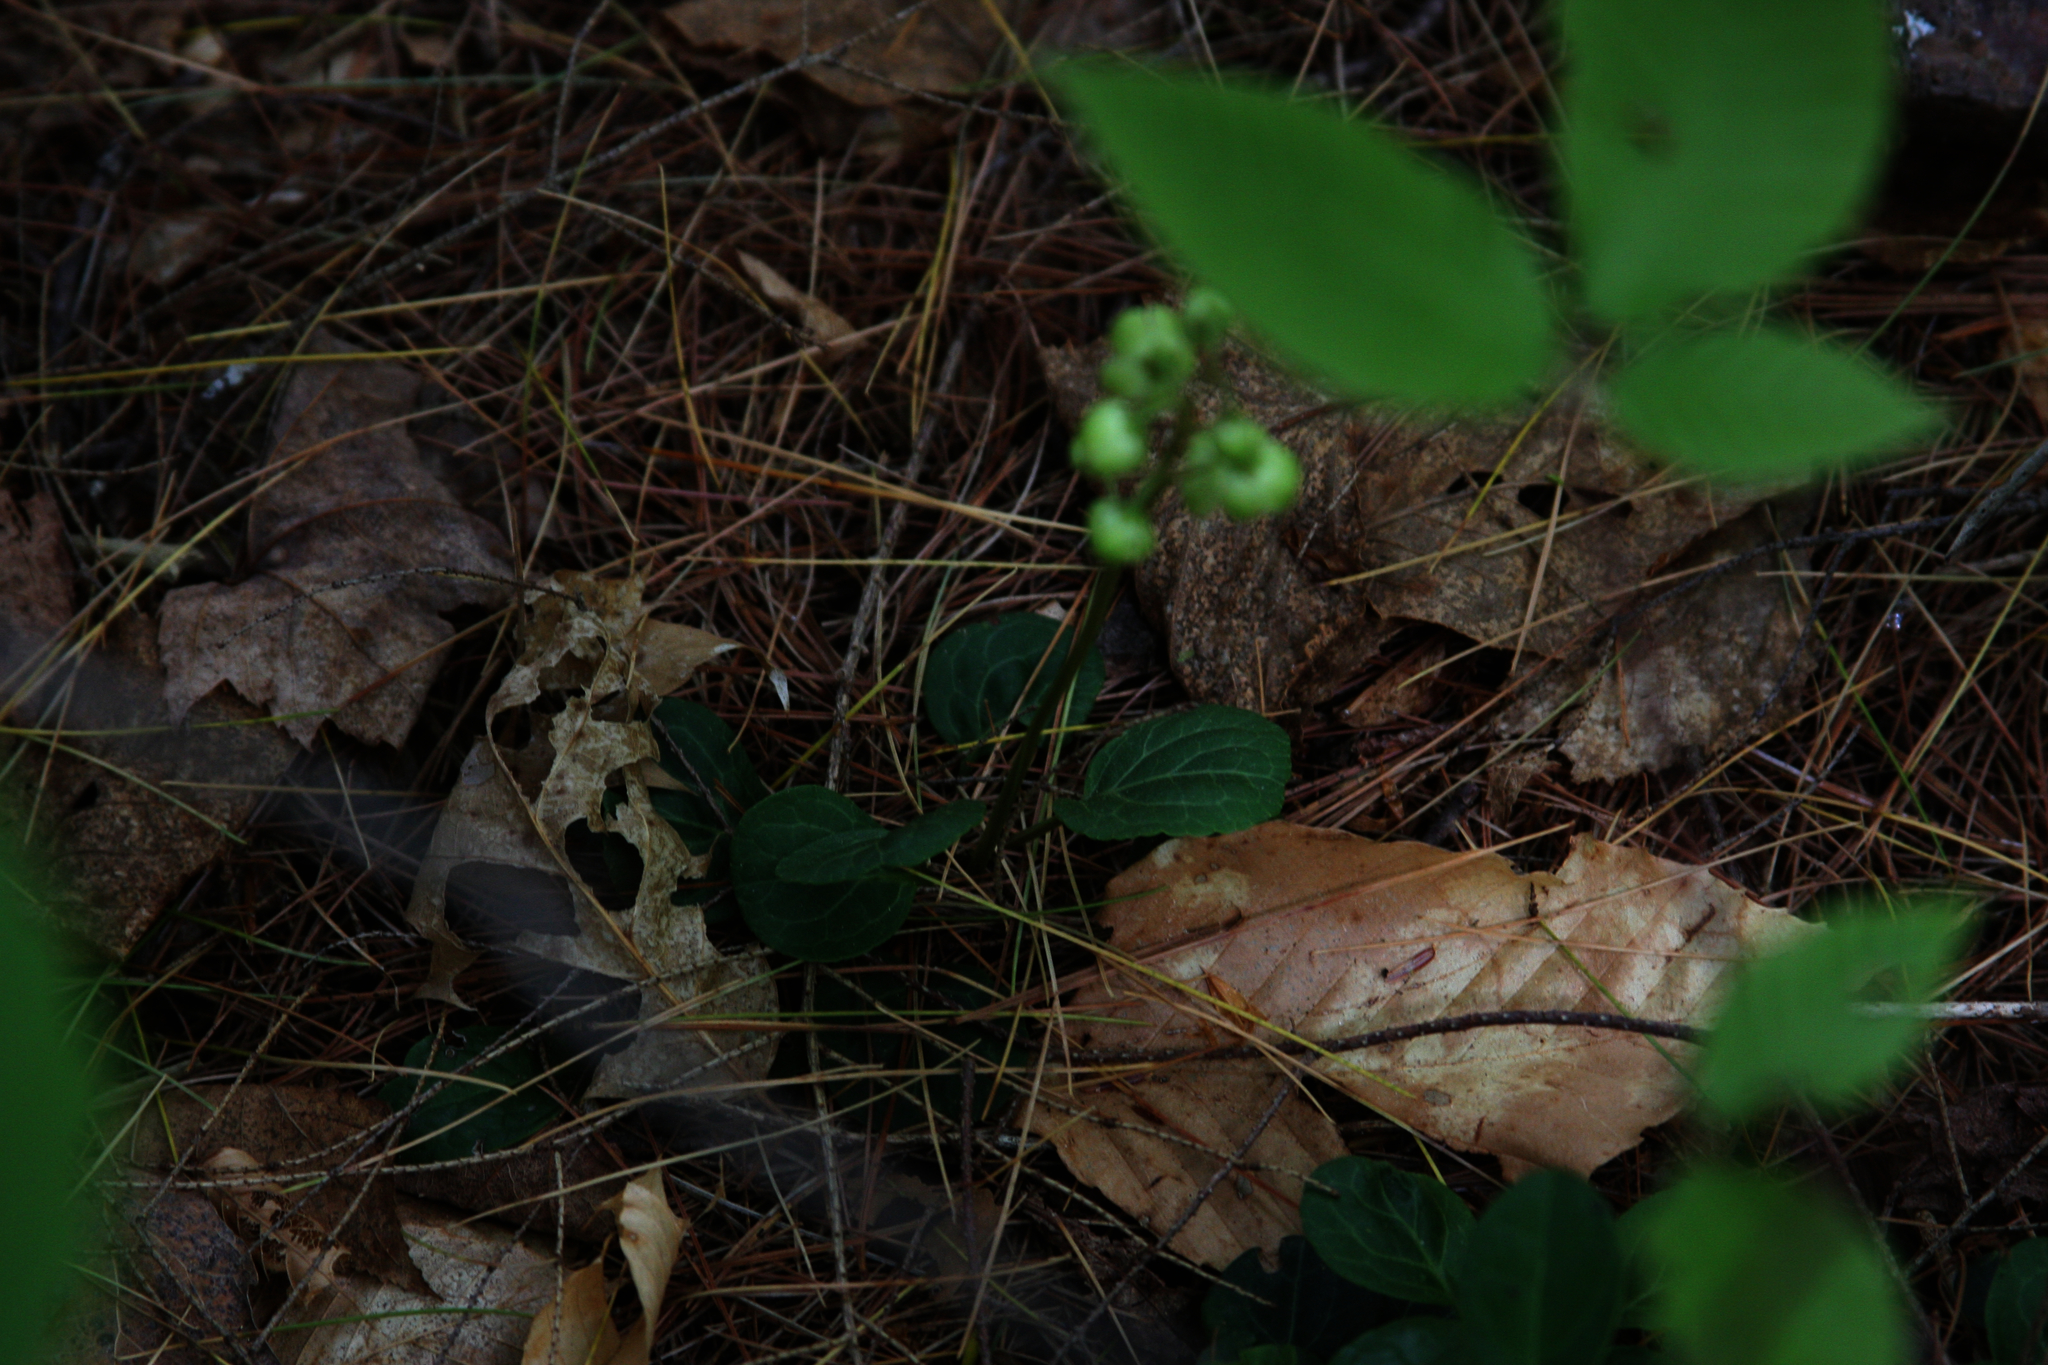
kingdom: Plantae
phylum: Tracheophyta
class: Magnoliopsida
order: Ericales
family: Ericaceae
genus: Pyrola
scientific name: Pyrola chlorantha
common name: Green wintergreen
